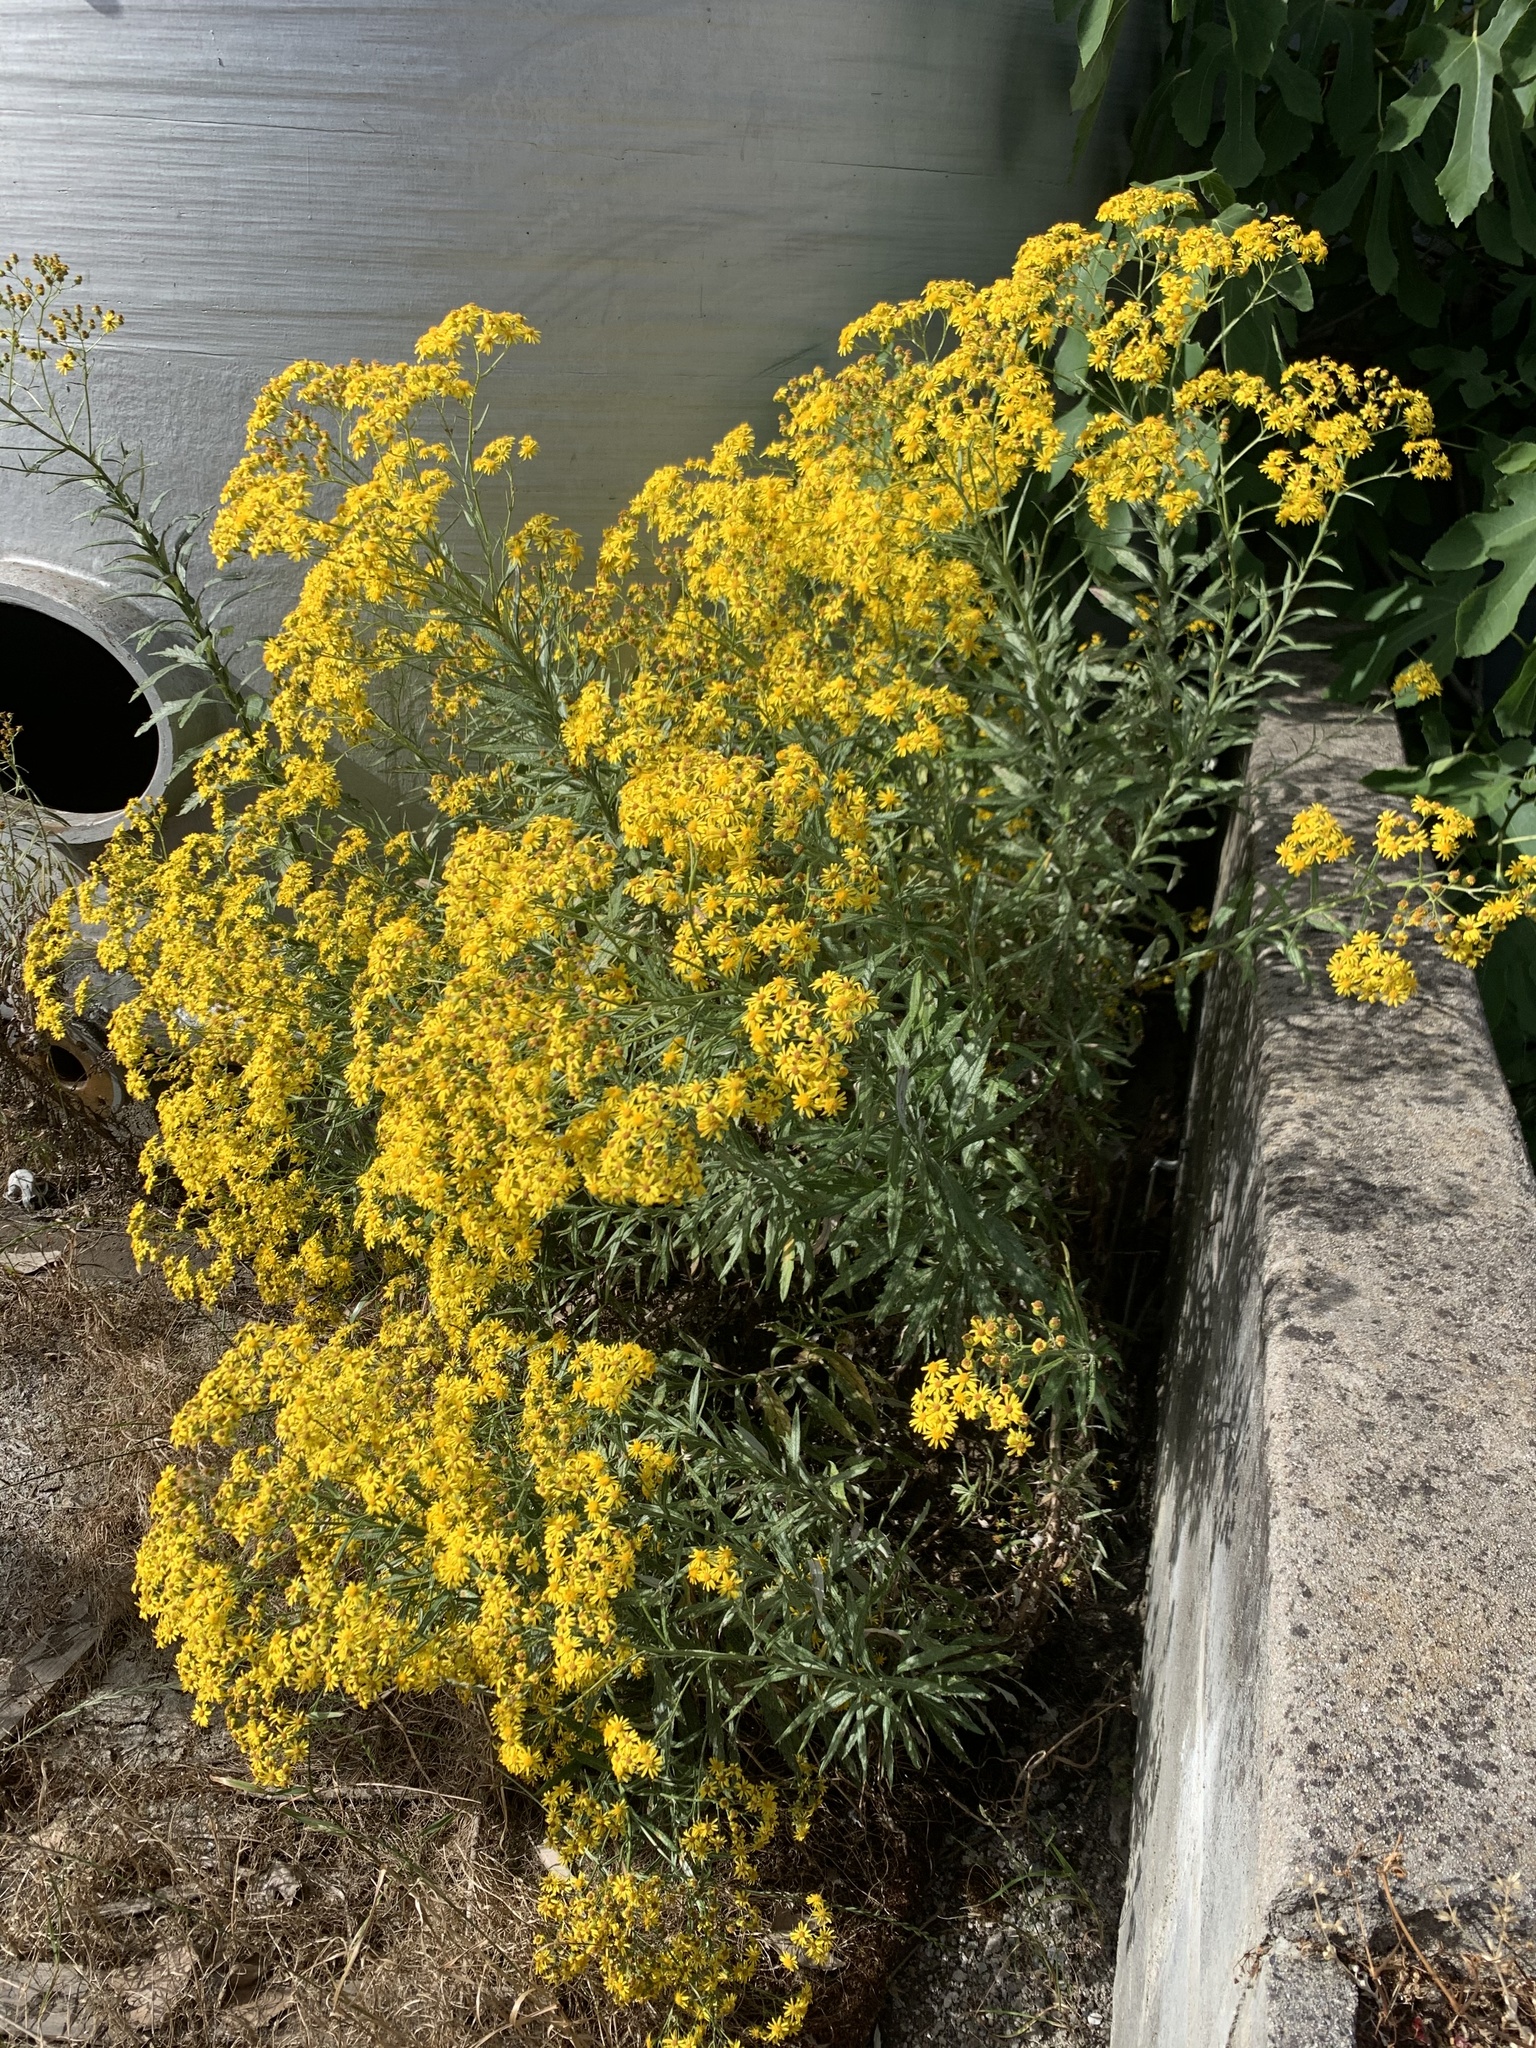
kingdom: Plantae
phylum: Tracheophyta
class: Magnoliopsida
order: Asterales
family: Asteraceae
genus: Senecio
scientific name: Senecio pterophorus
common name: Shoddy ragwort
